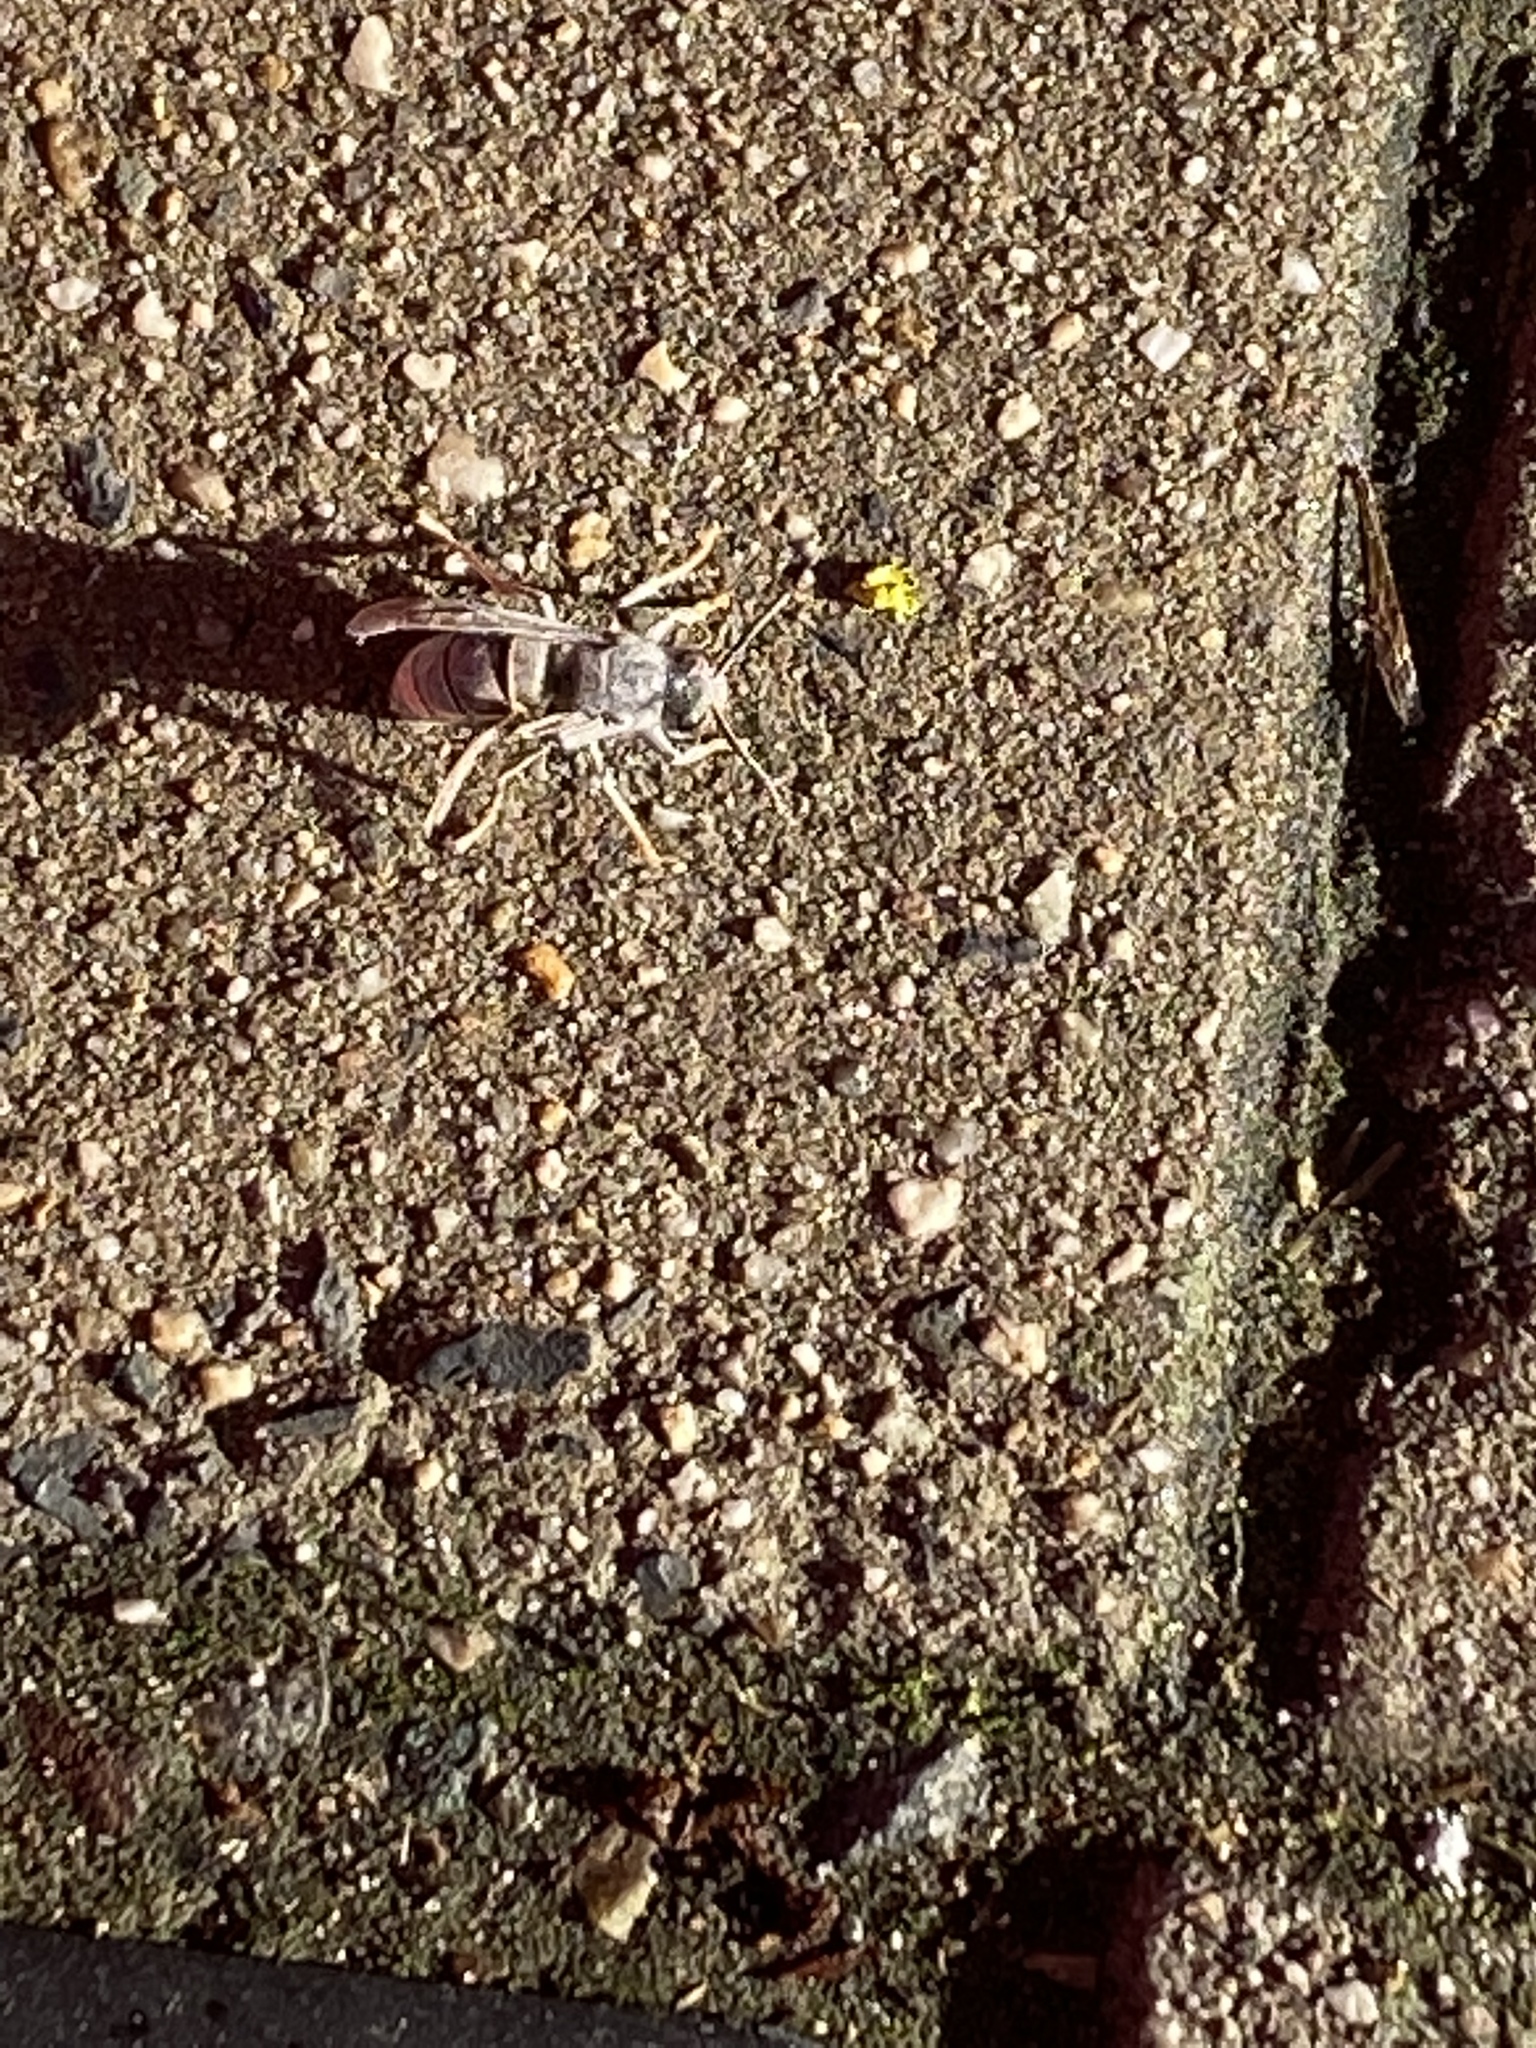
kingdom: Animalia
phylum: Arthropoda
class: Insecta
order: Hymenoptera
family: Vespidae
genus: Vespa
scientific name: Vespa velutina
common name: Asian hornet
